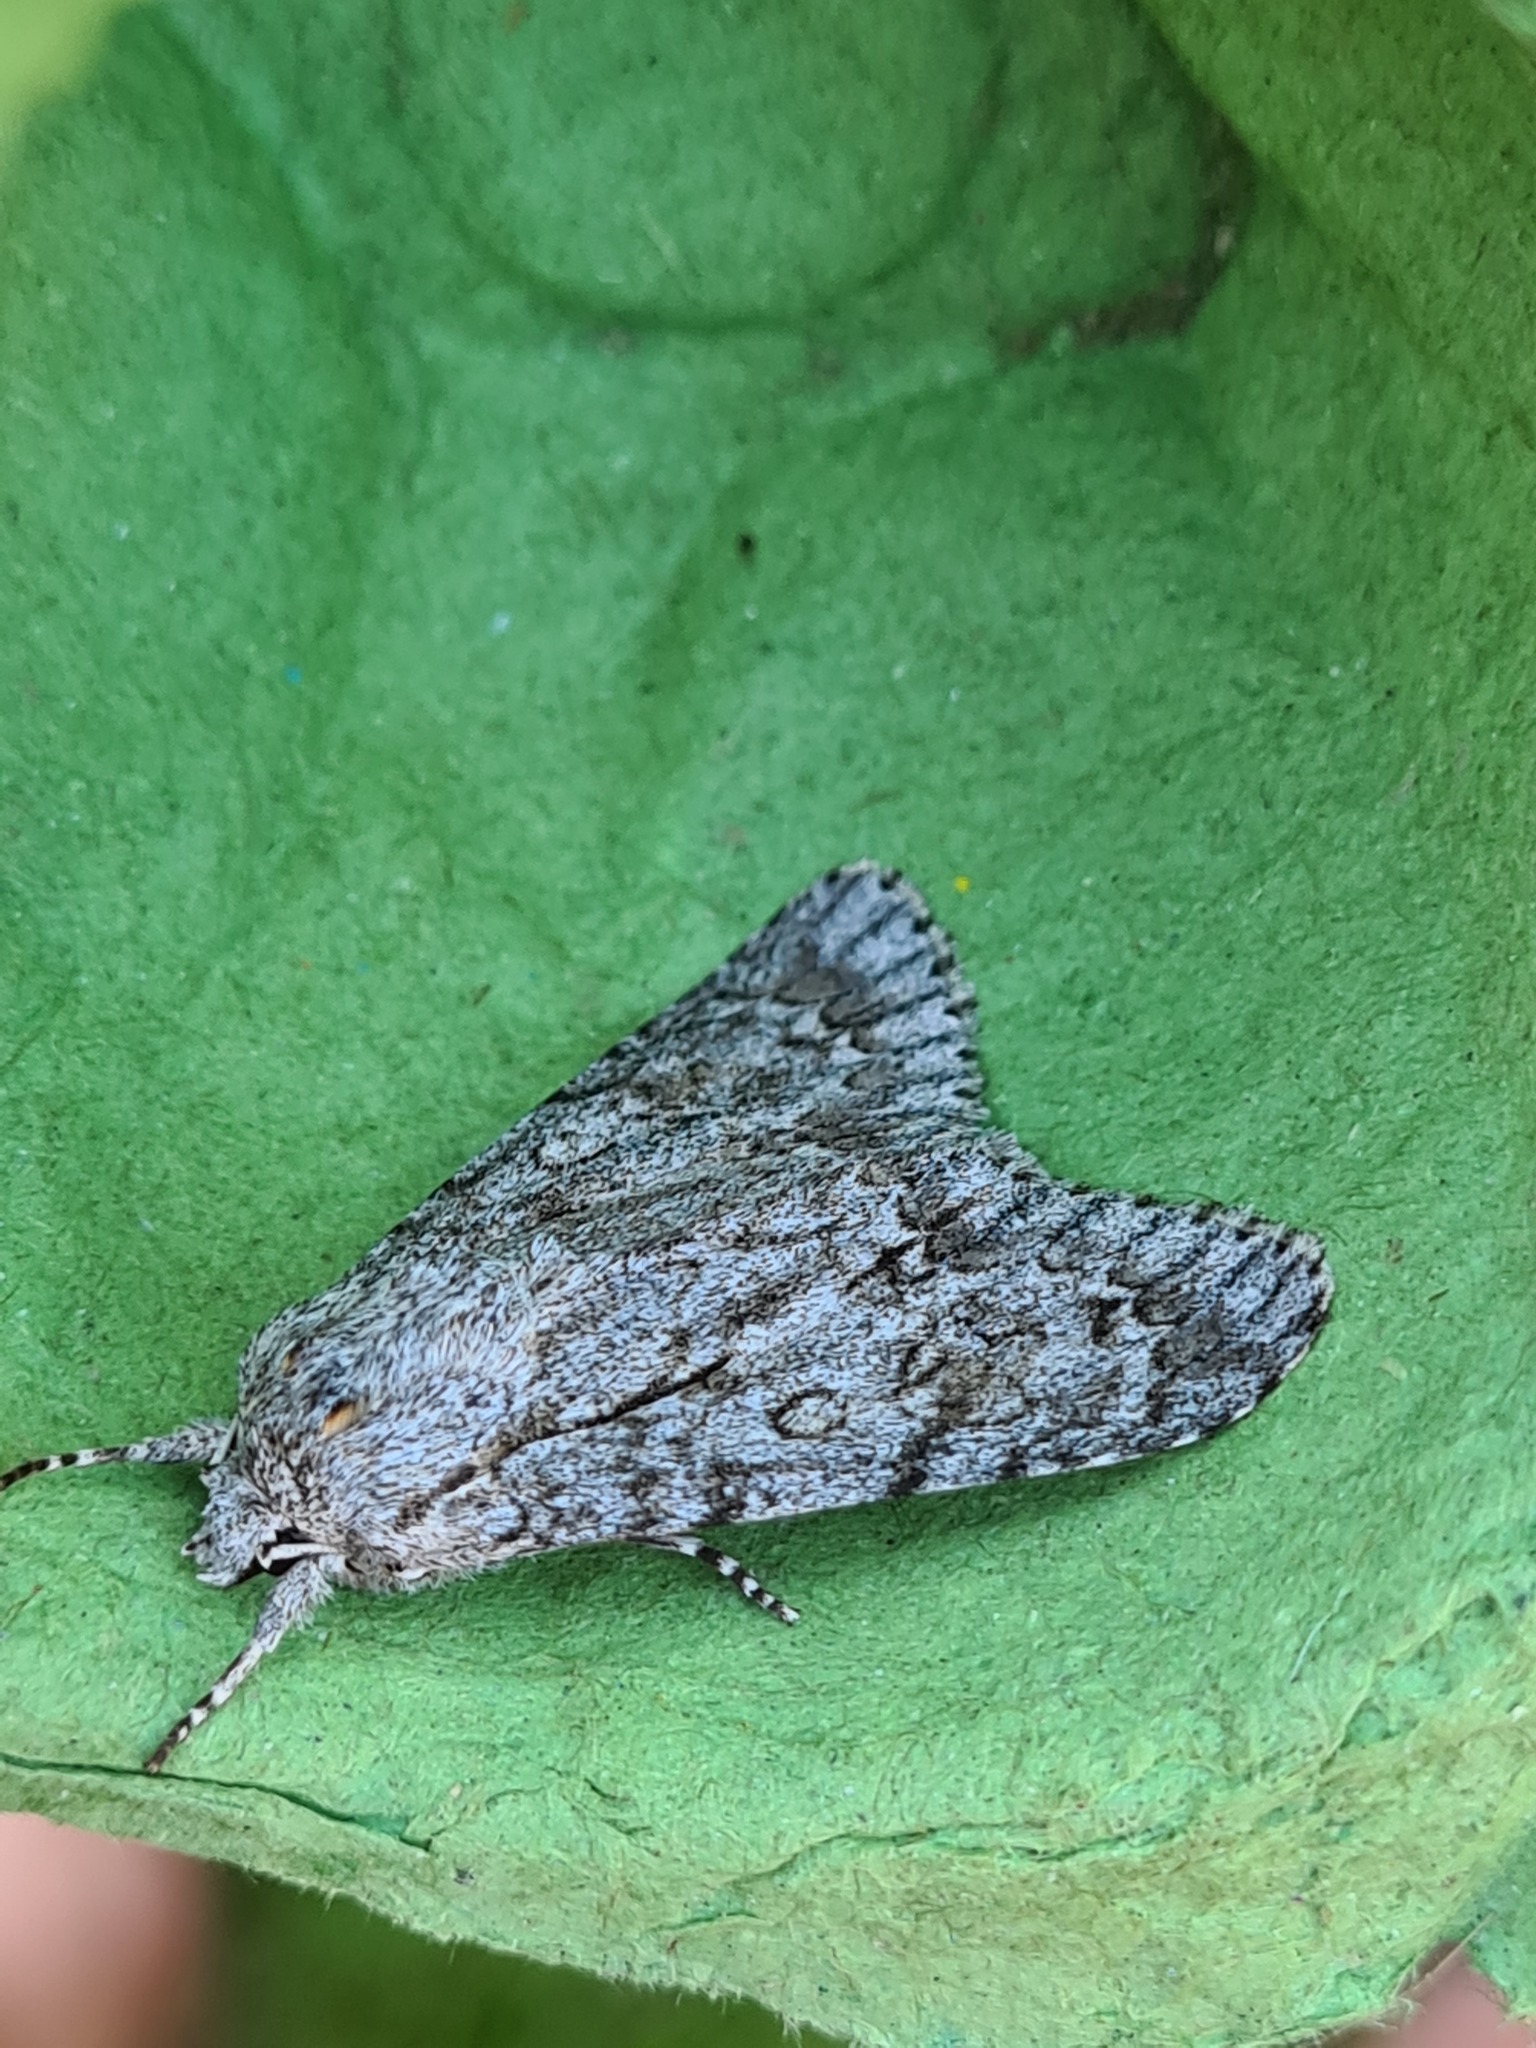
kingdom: Animalia
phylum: Arthropoda
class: Insecta
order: Lepidoptera
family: Noctuidae
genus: Acronicta
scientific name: Acronicta aceris
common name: Sycamore
